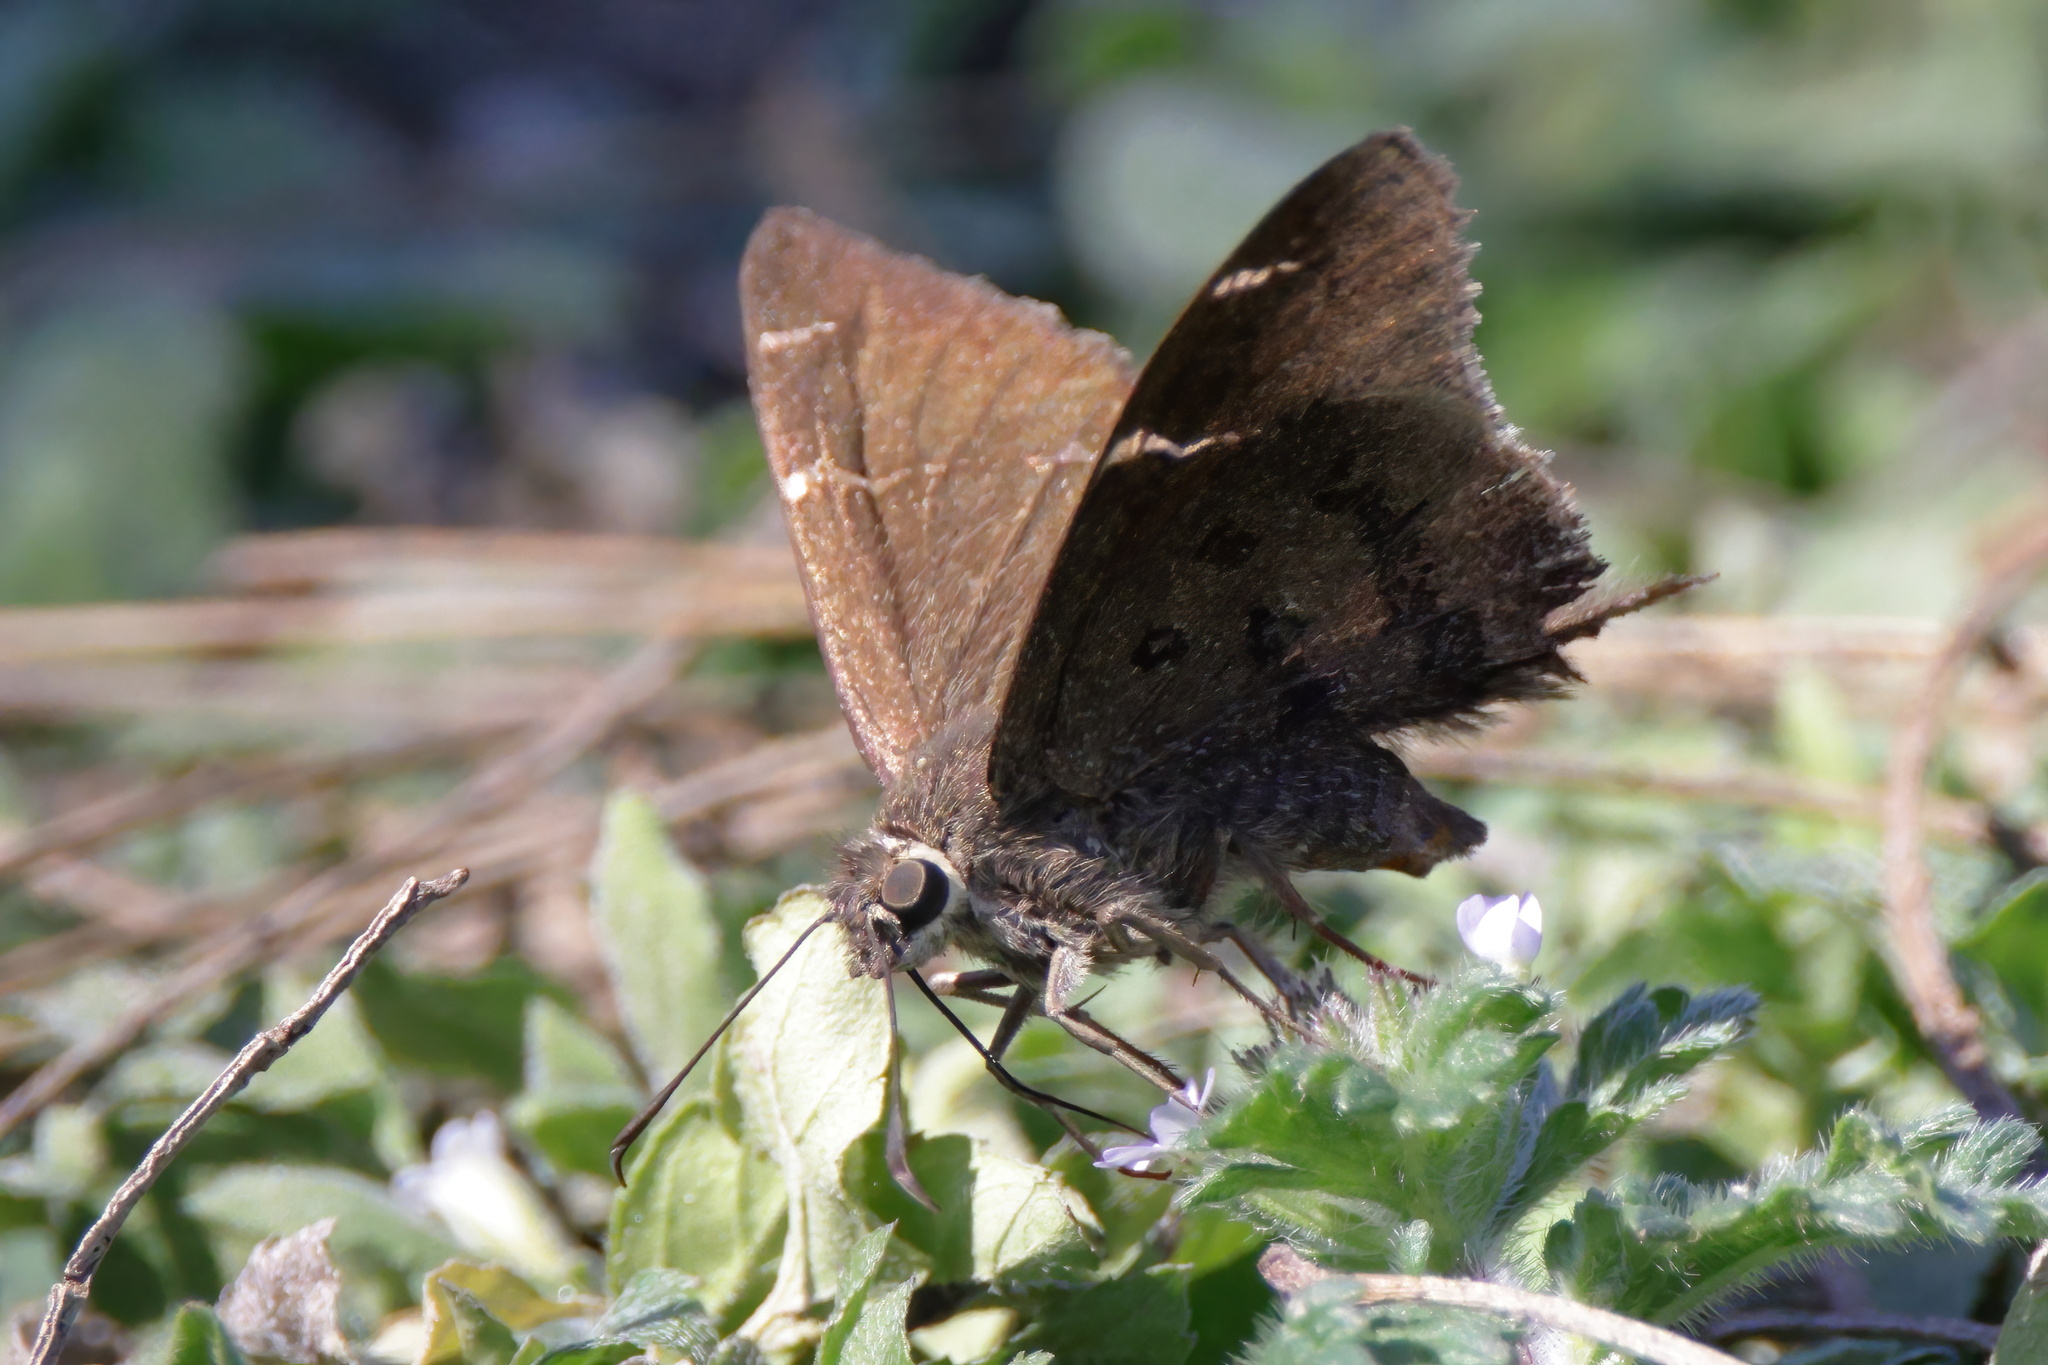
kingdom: Animalia
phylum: Arthropoda
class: Insecta
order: Lepidoptera
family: Hesperiidae
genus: Urbanus
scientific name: Urbanus procne
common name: Brown longtail
